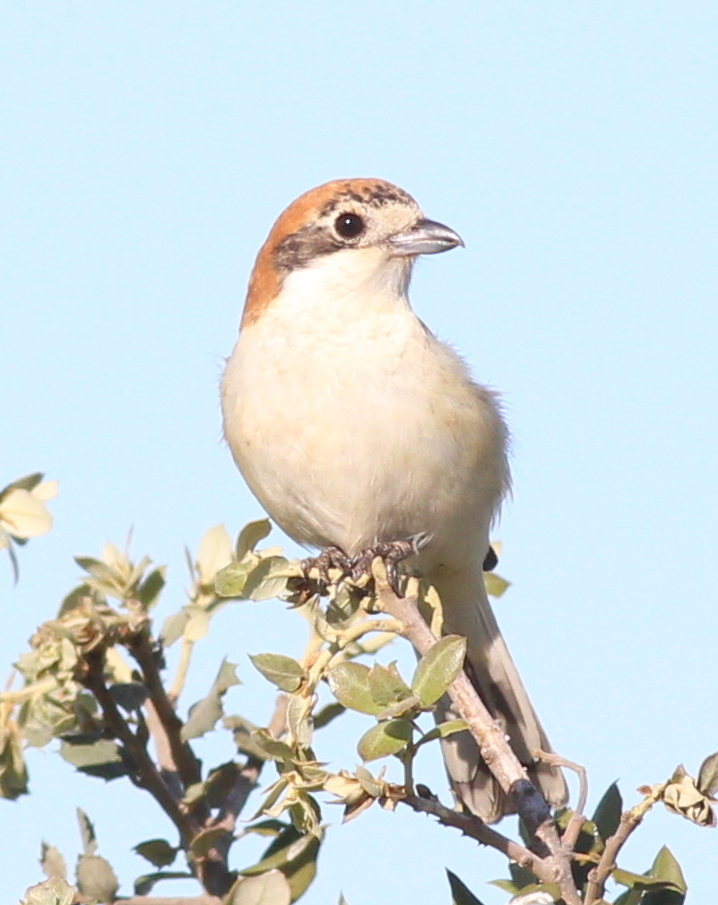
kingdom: Animalia
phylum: Chordata
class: Aves
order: Passeriformes
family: Laniidae
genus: Lanius
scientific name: Lanius senator
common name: Woodchat shrike
